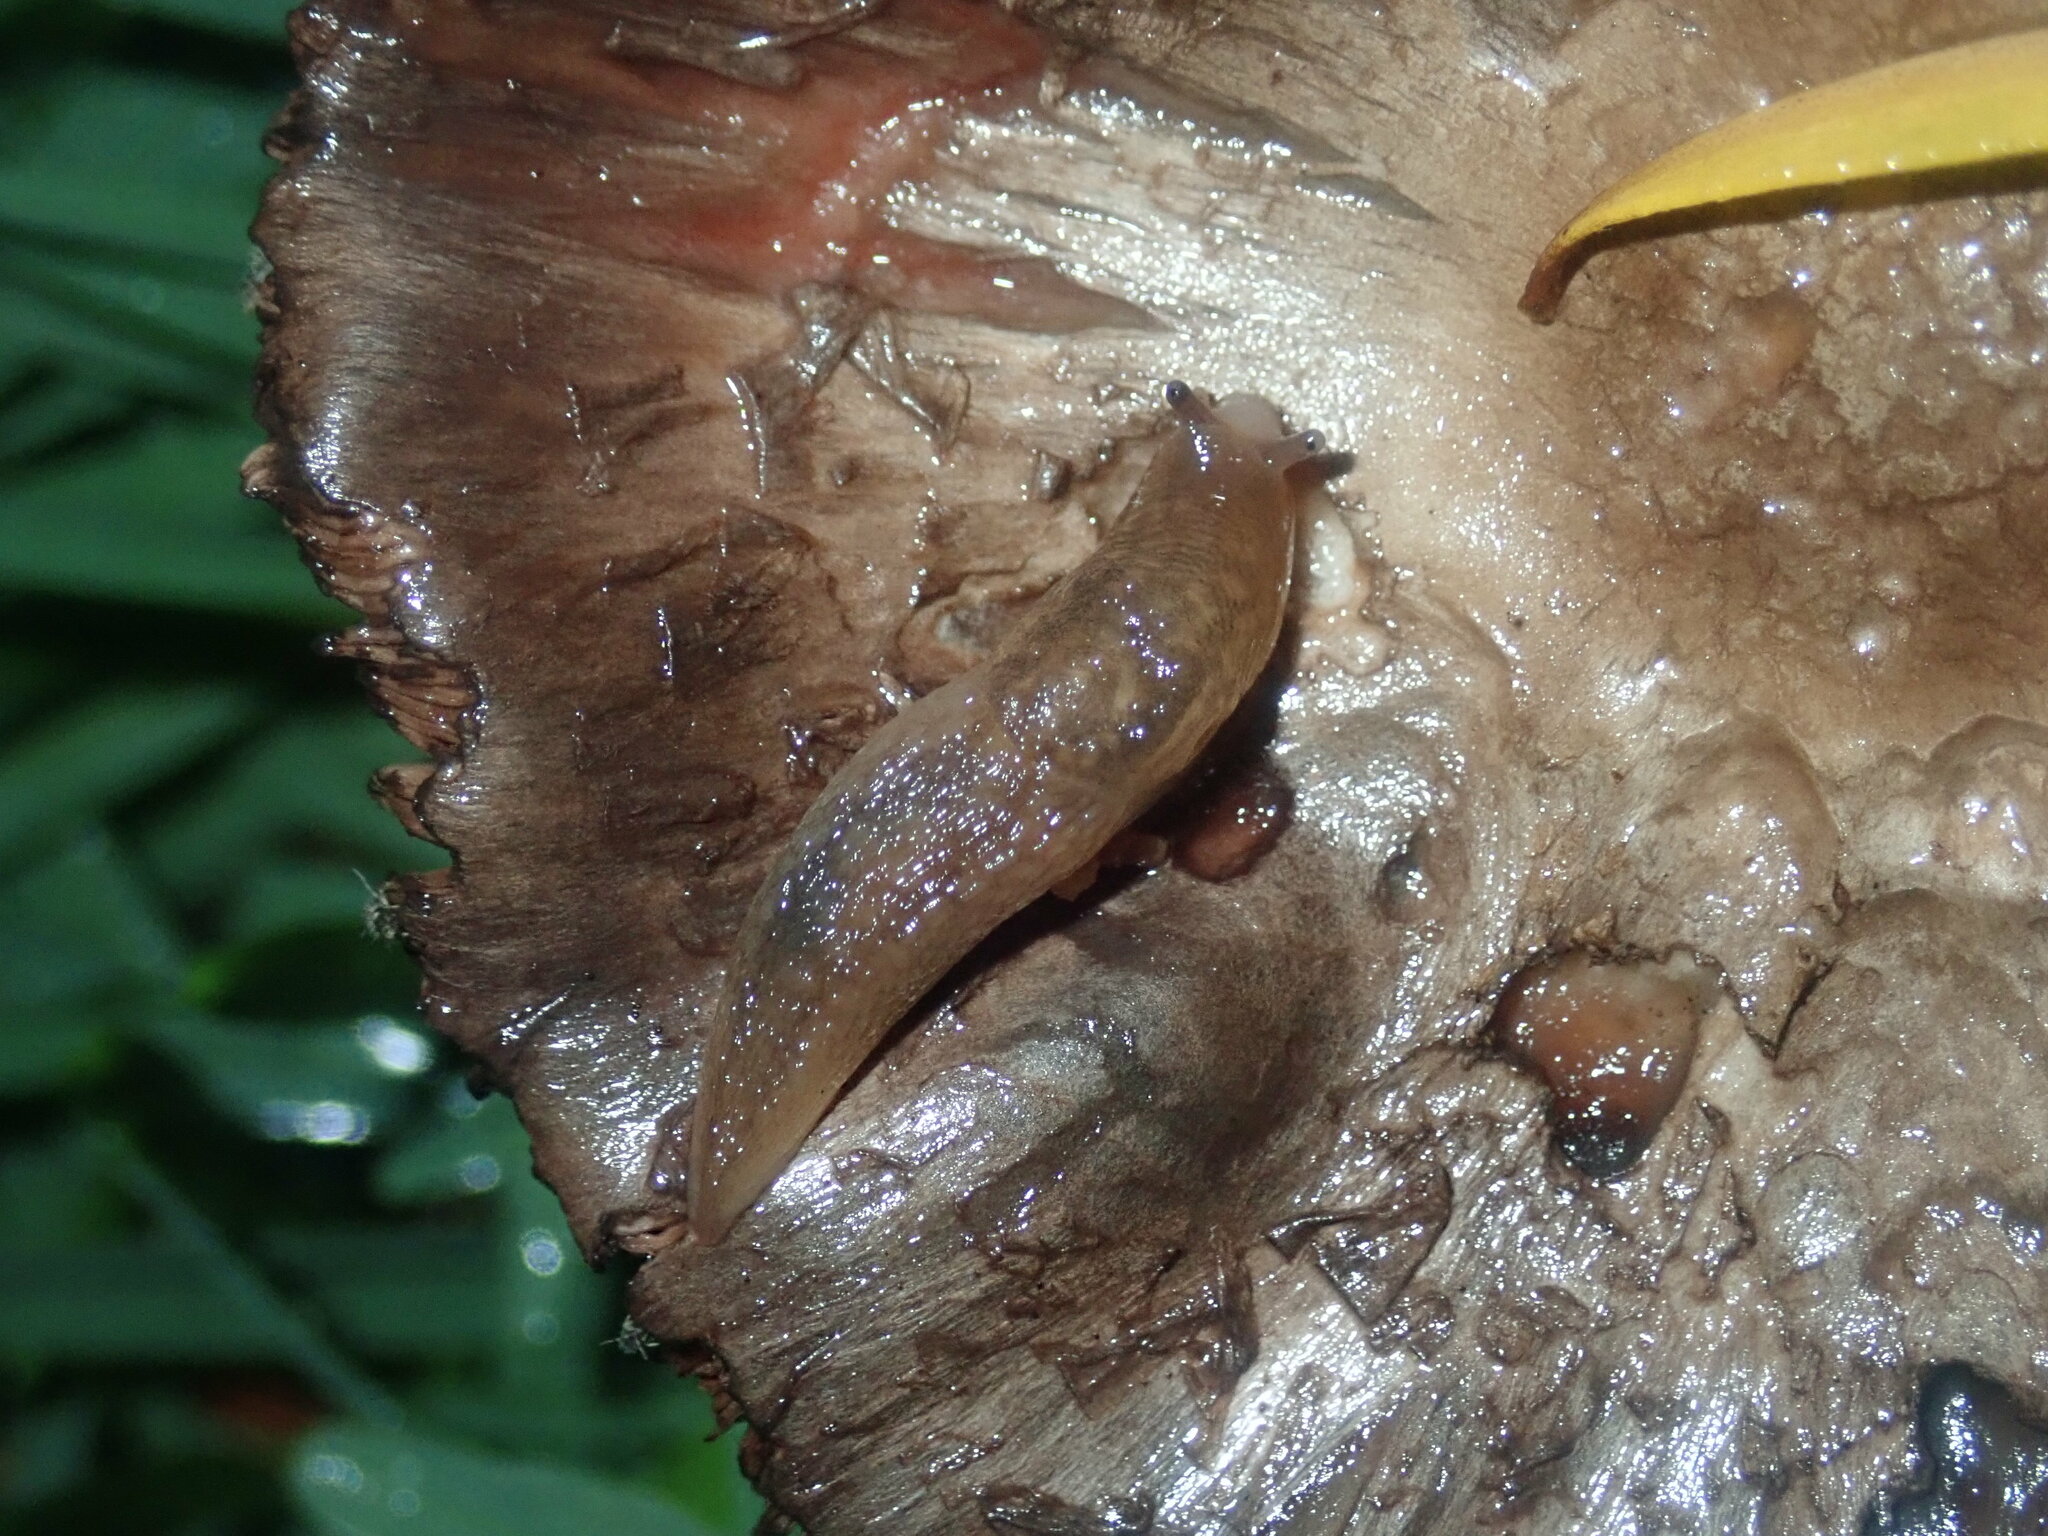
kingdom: Animalia
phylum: Mollusca
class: Gastropoda
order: Stylommatophora
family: Limacidae
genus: Ambigolimax
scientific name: Ambigolimax
